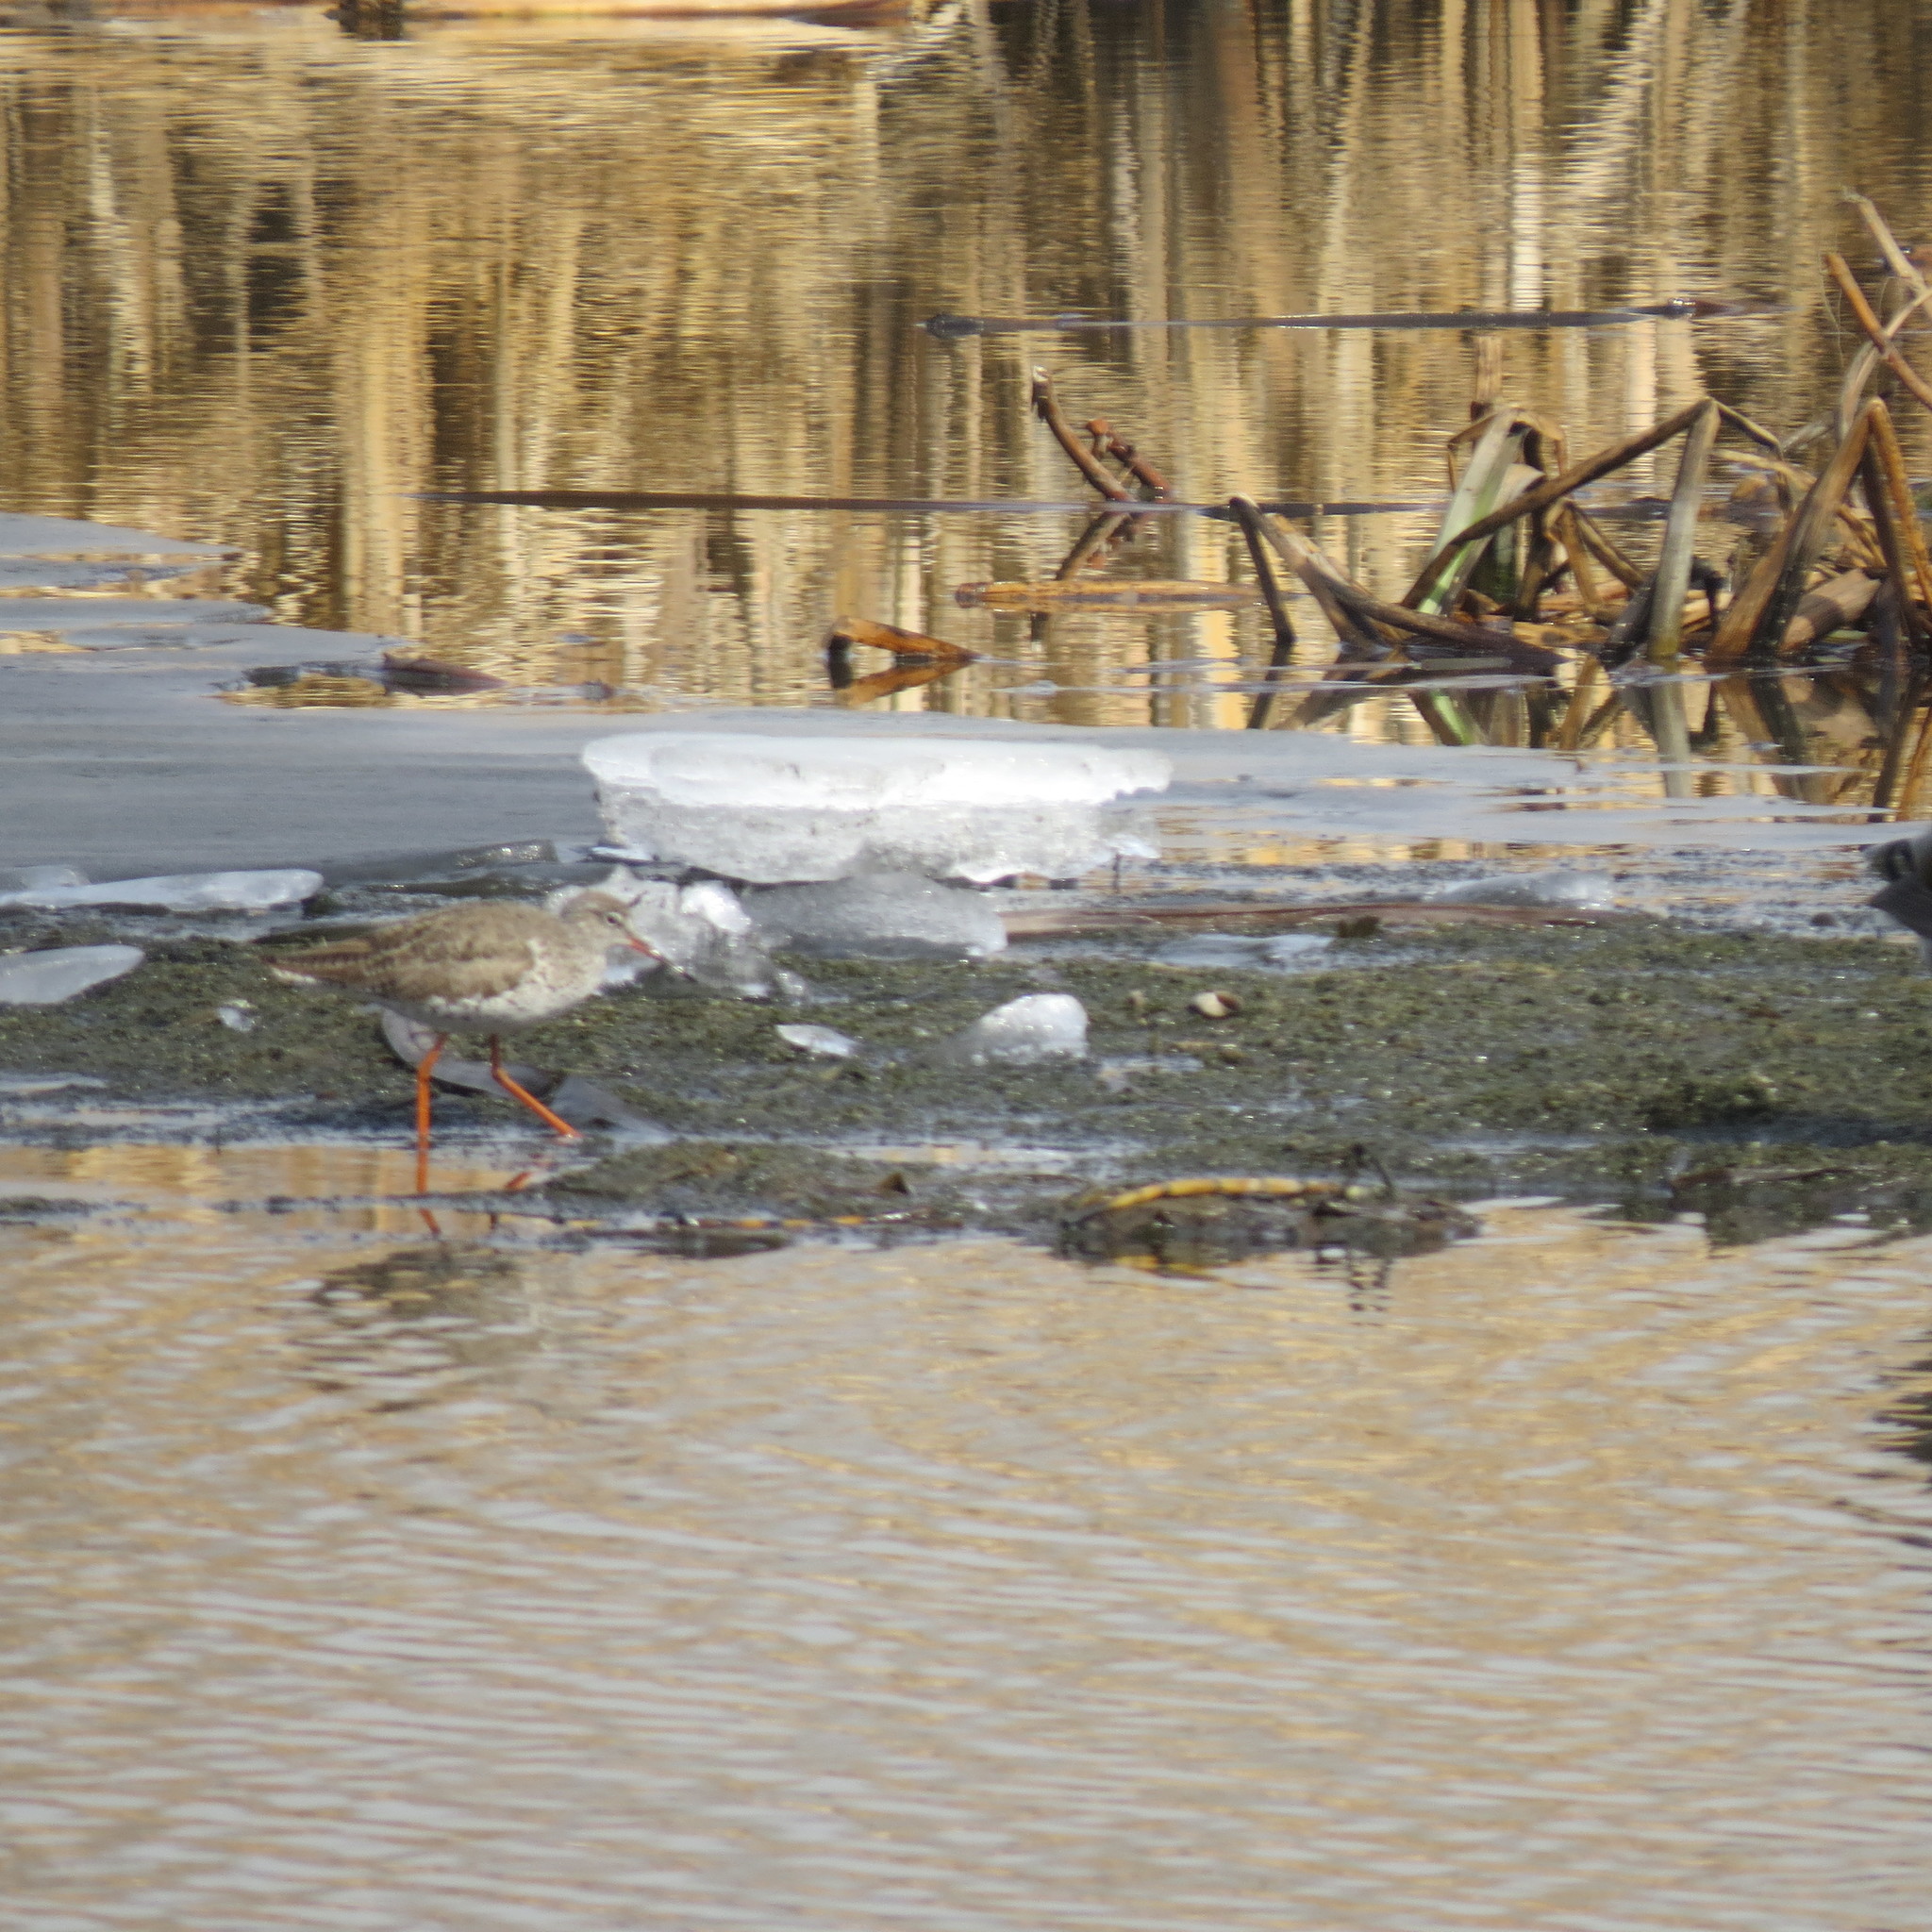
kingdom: Animalia
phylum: Chordata
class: Aves
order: Charadriiformes
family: Scolopacidae
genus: Tringa
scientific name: Tringa totanus
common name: Common redshank
